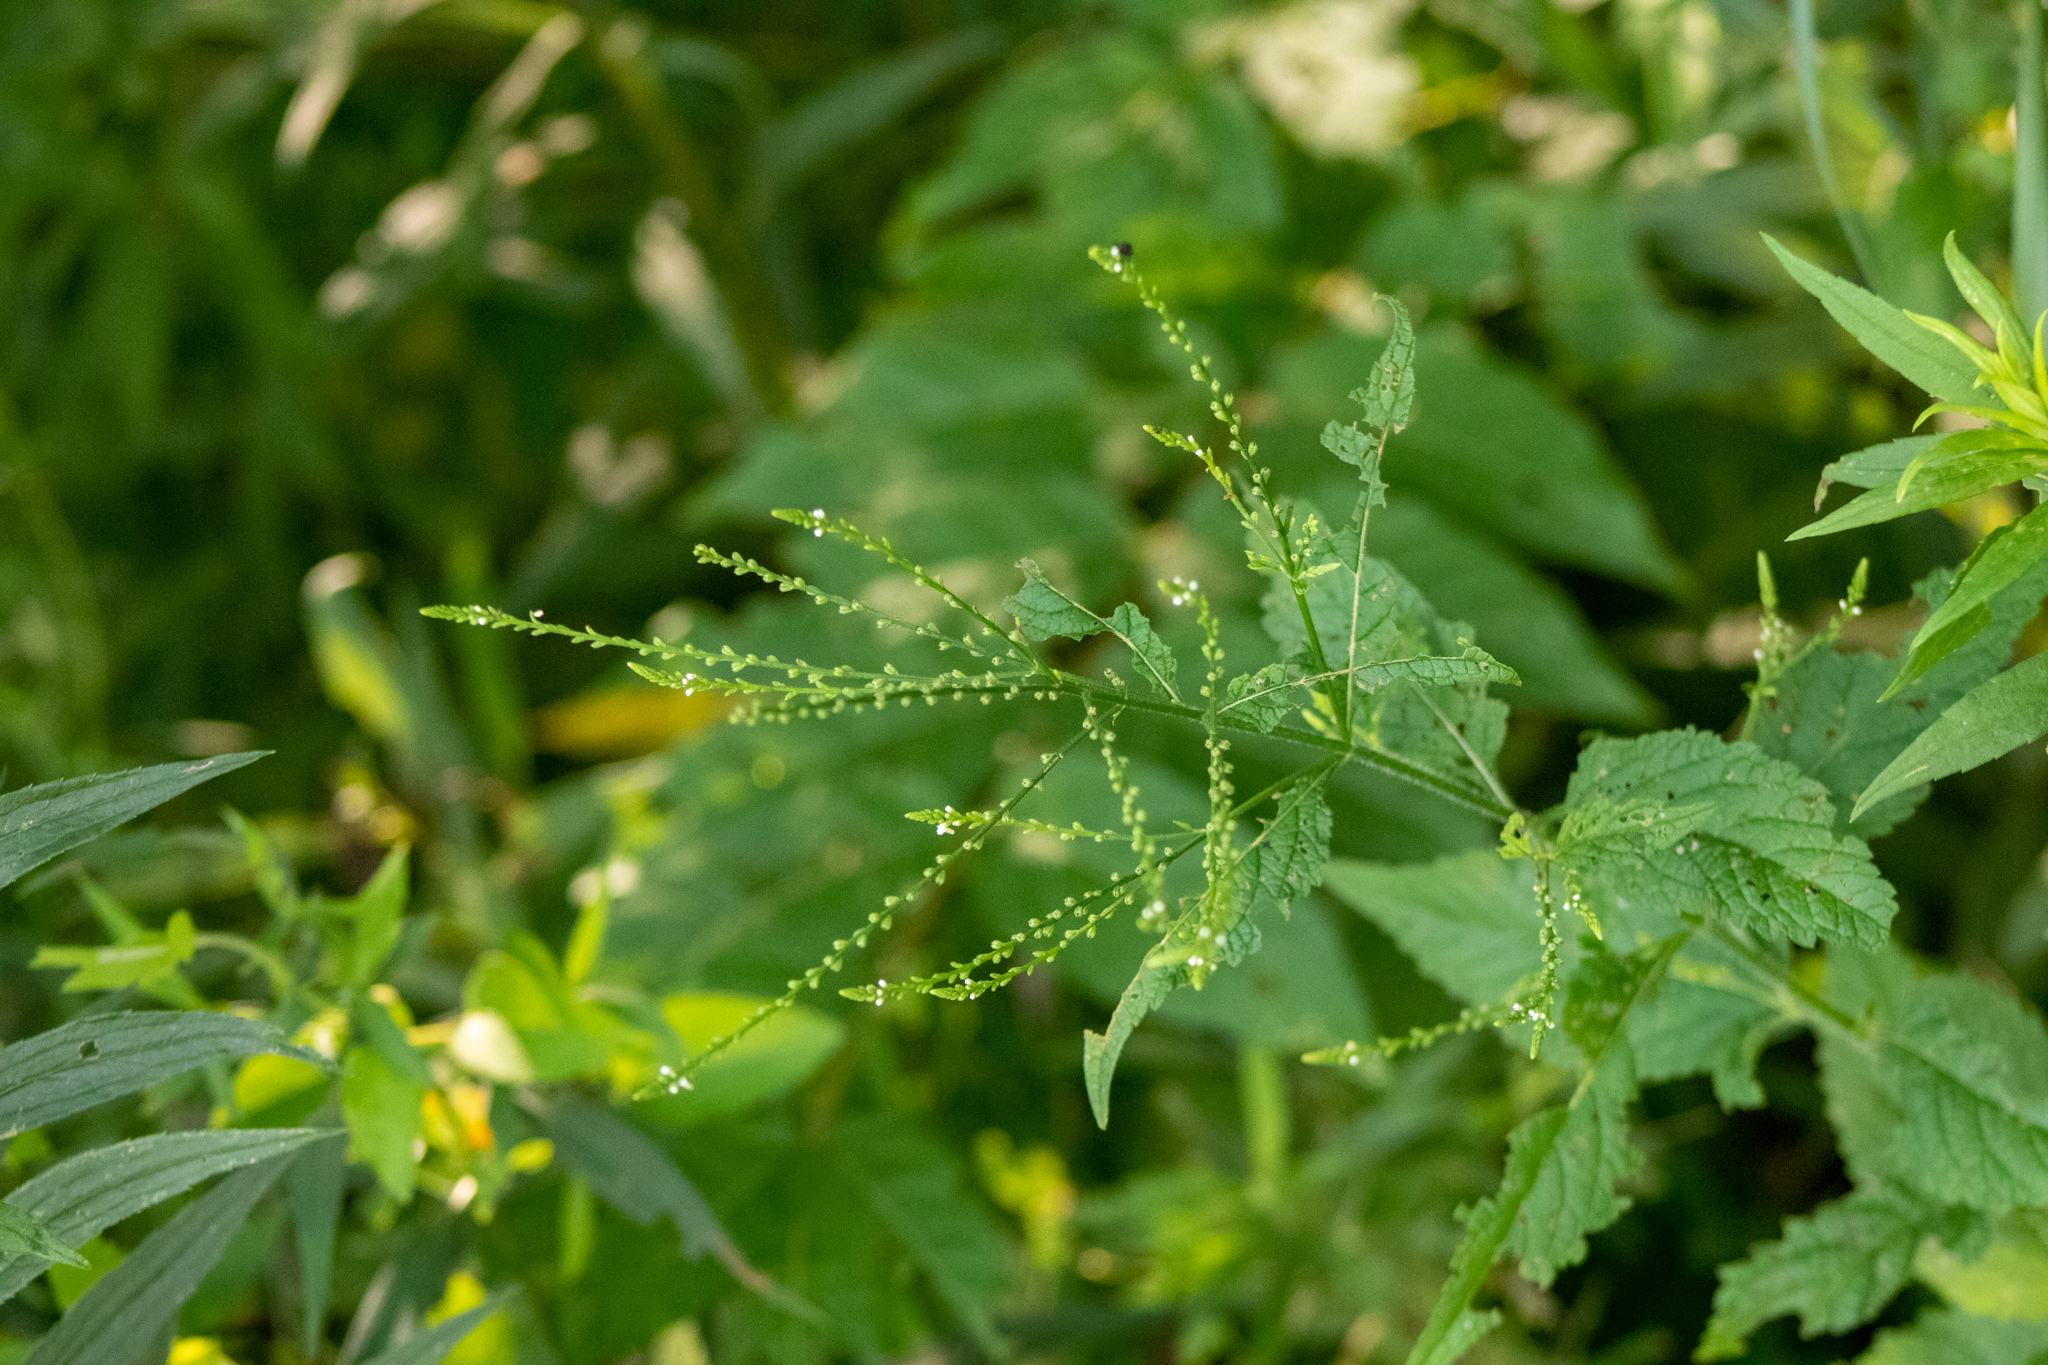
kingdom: Plantae
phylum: Tracheophyta
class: Magnoliopsida
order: Lamiales
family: Verbenaceae
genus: Verbena
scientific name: Verbena urticifolia
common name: Nettle-leaved vervain
